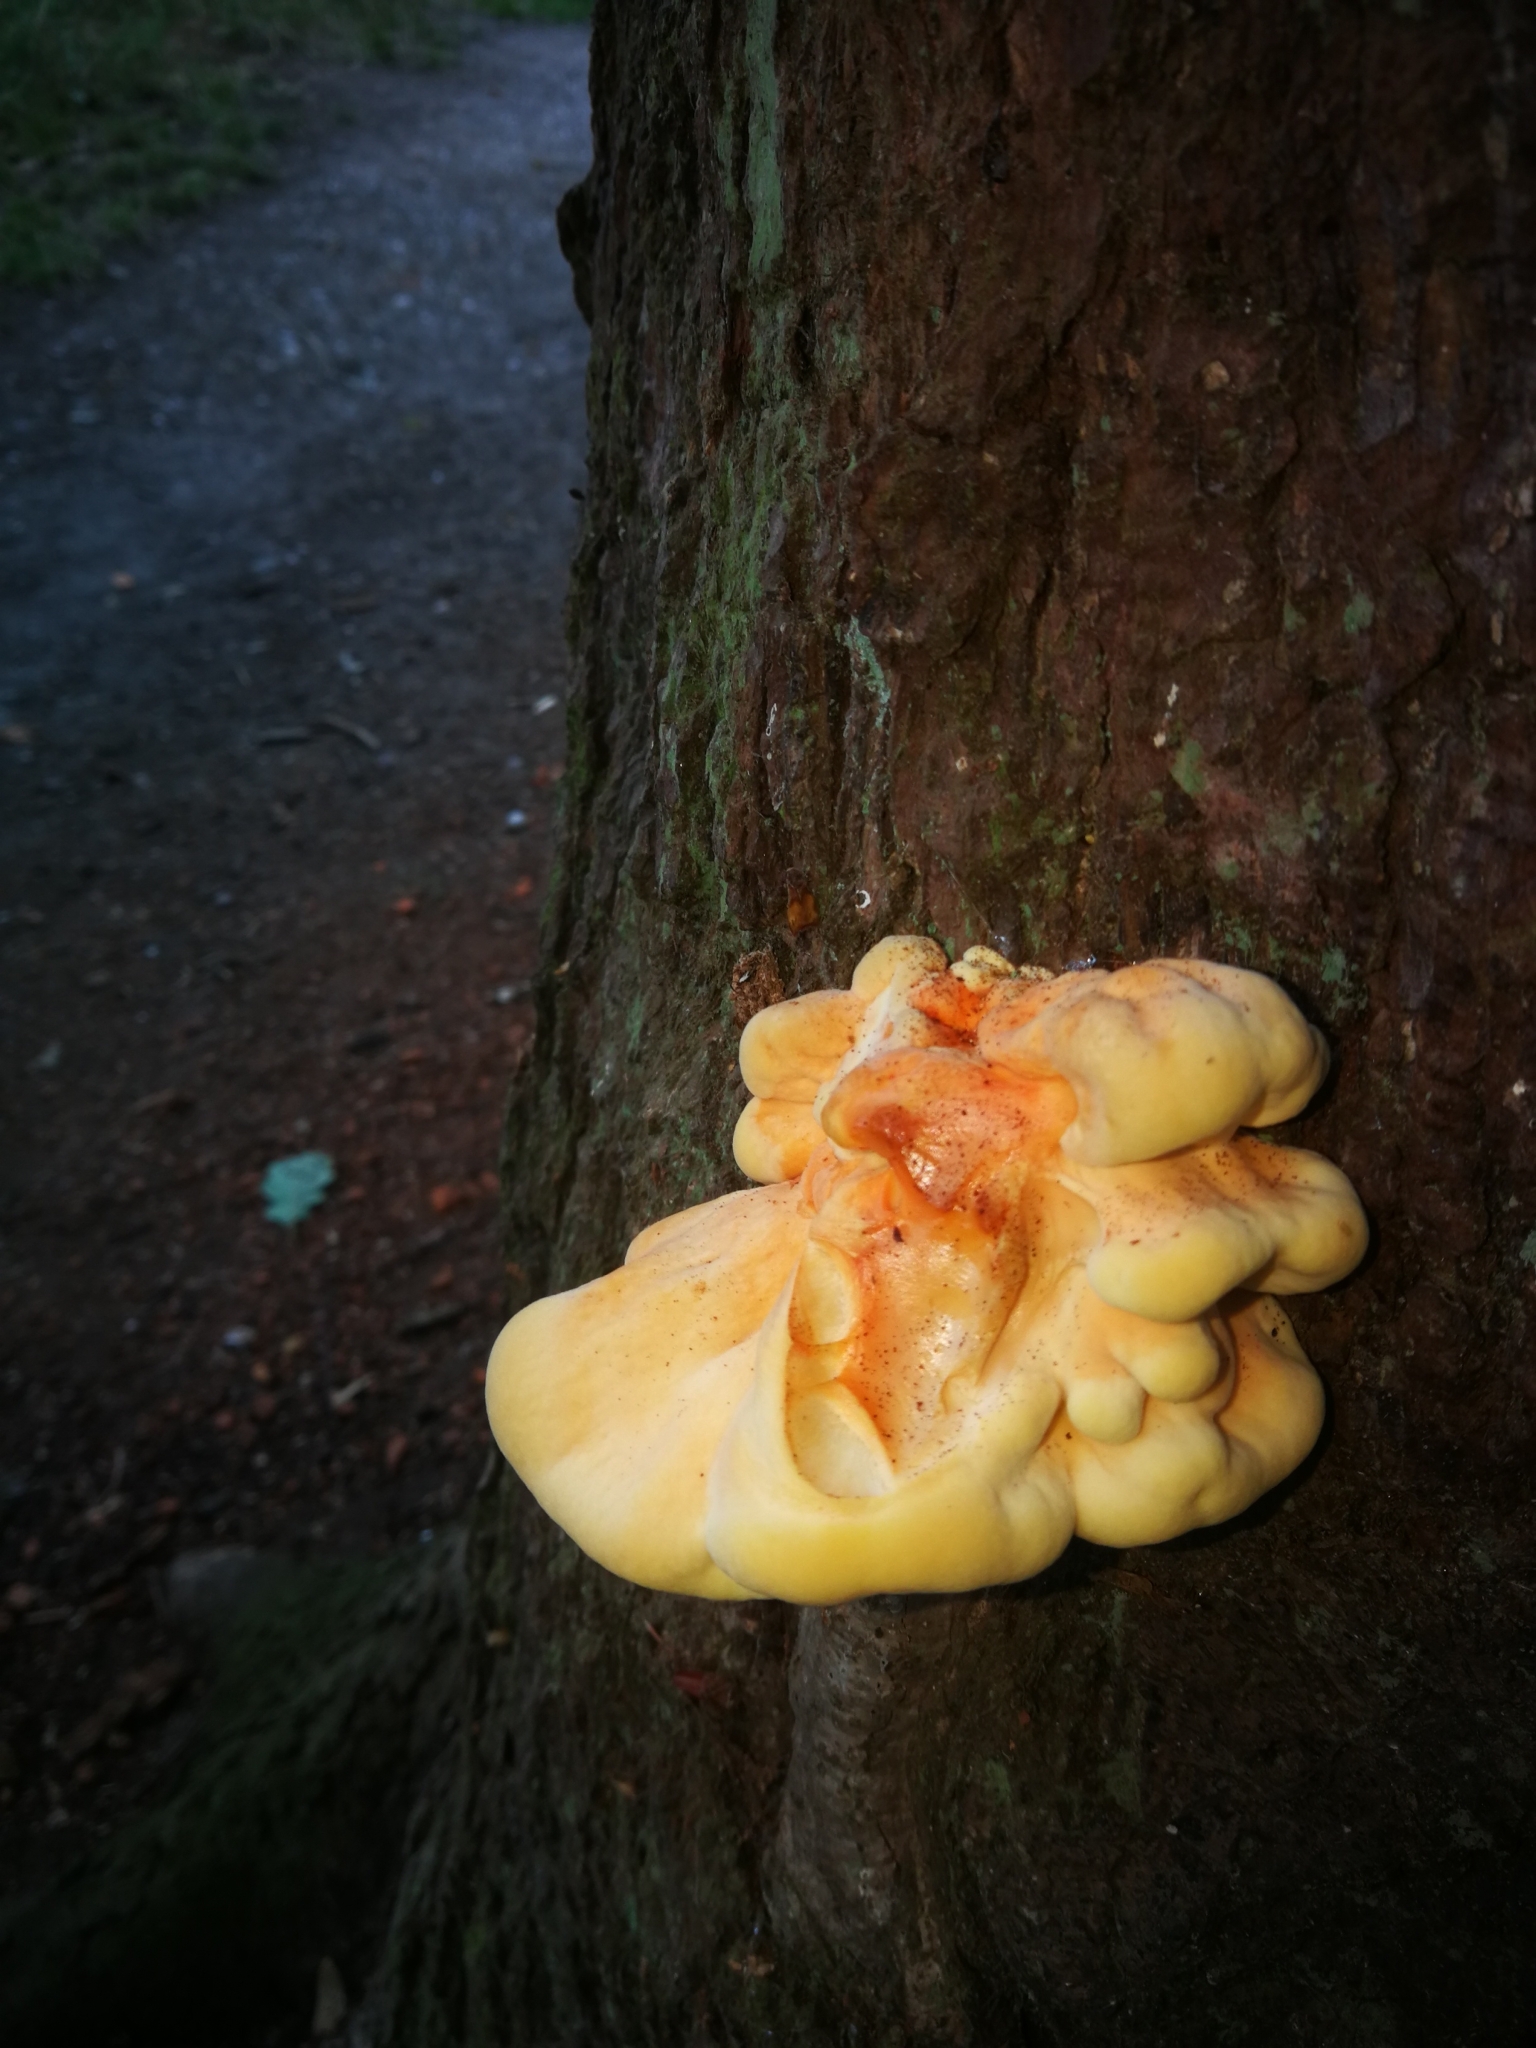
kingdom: Fungi
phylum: Basidiomycota
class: Agaricomycetes
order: Polyporales
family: Laetiporaceae
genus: Laetiporus
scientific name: Laetiporus sulphureus
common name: Chicken of the woods
